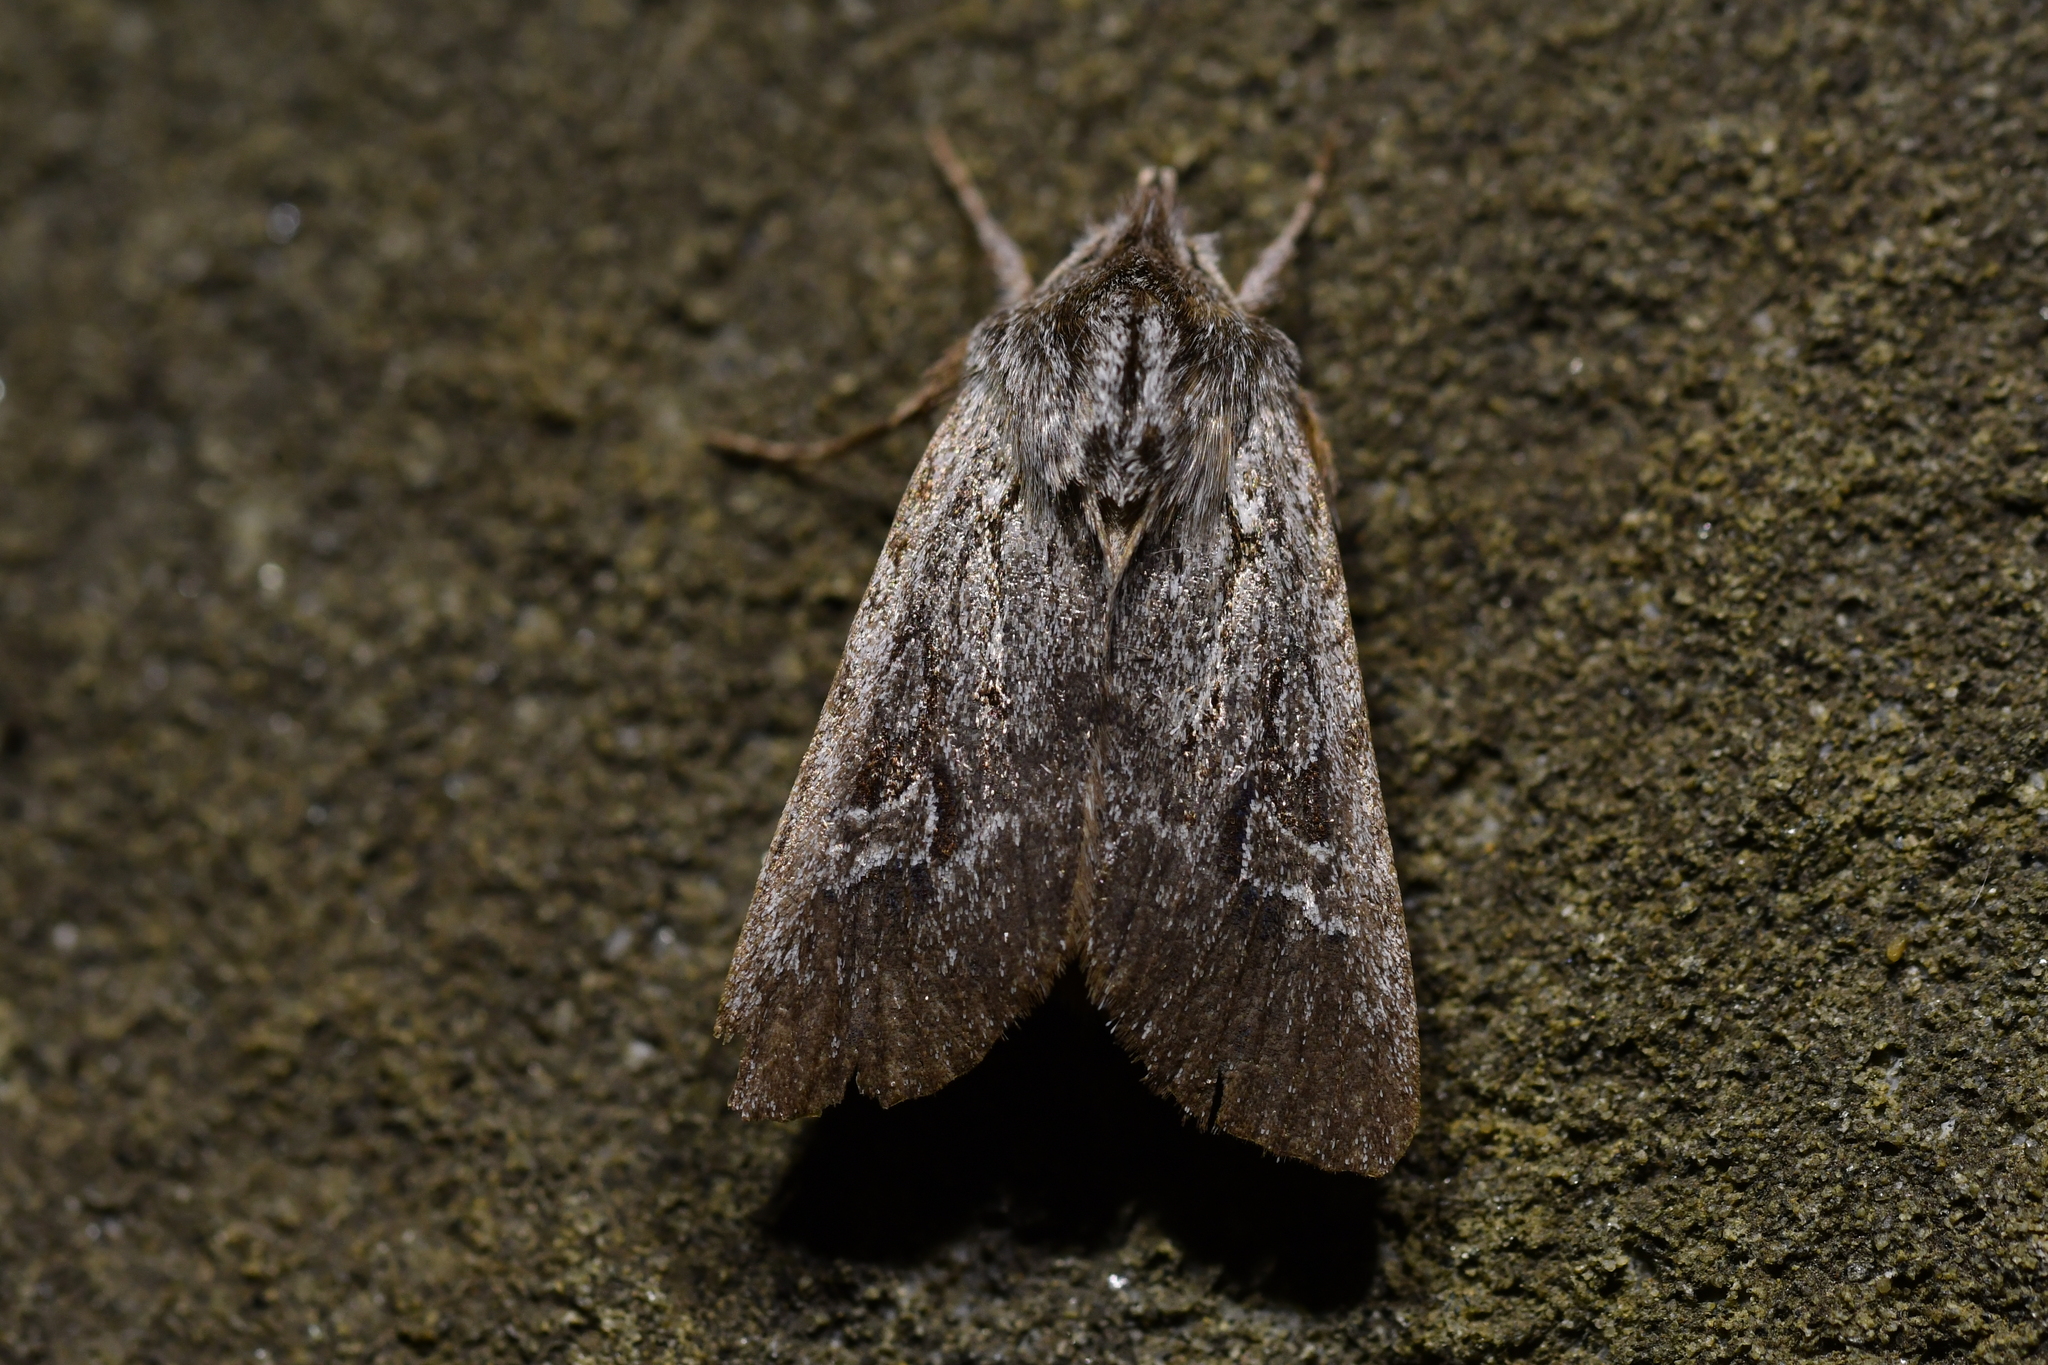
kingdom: Animalia
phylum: Arthropoda
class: Insecta
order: Lepidoptera
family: Noctuidae
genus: Physetica
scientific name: Physetica sequens
